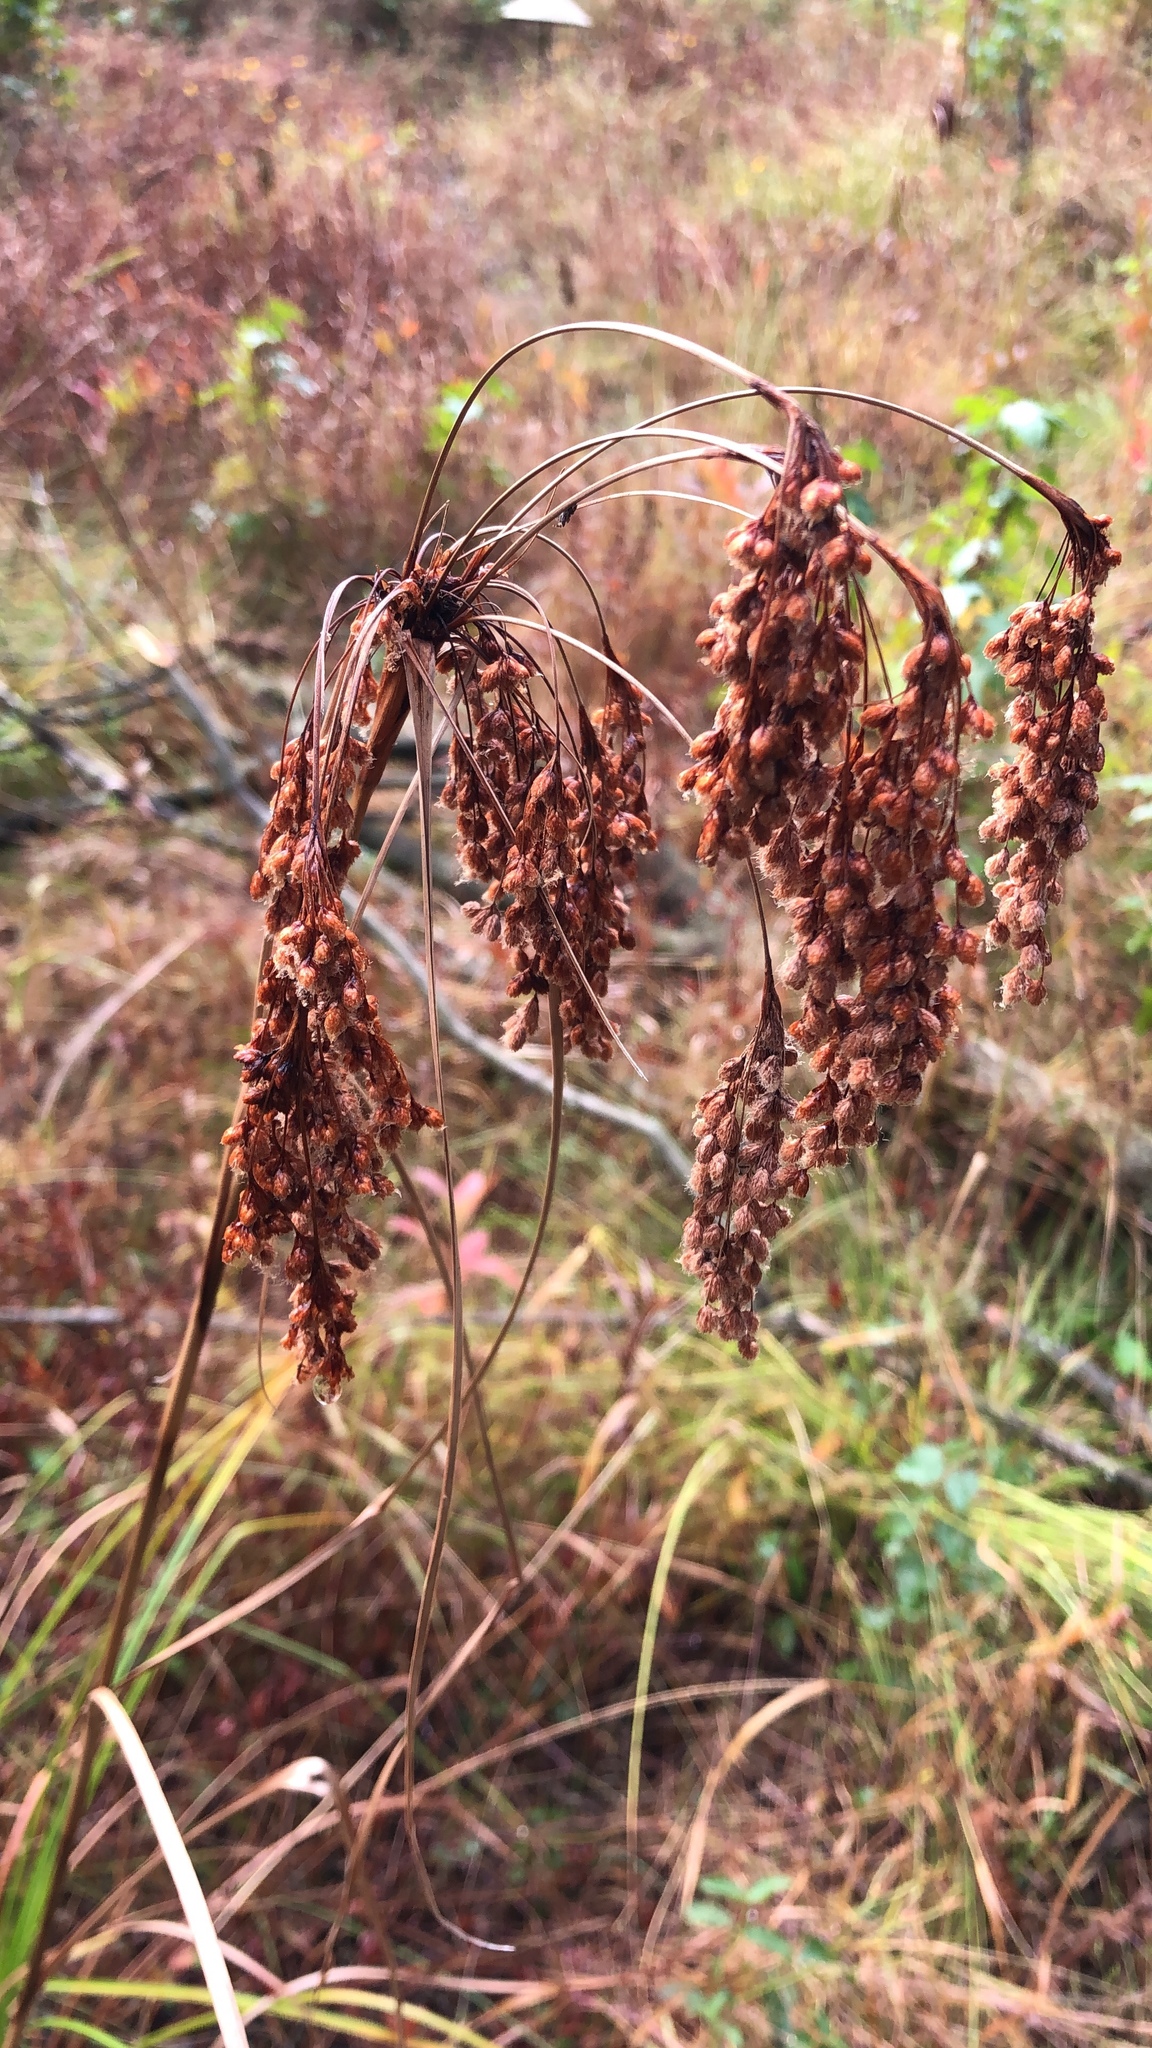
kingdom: Plantae
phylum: Tracheophyta
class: Liliopsida
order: Poales
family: Cyperaceae
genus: Scirpus
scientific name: Scirpus cyperinus
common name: Black-sheathed bulrush
